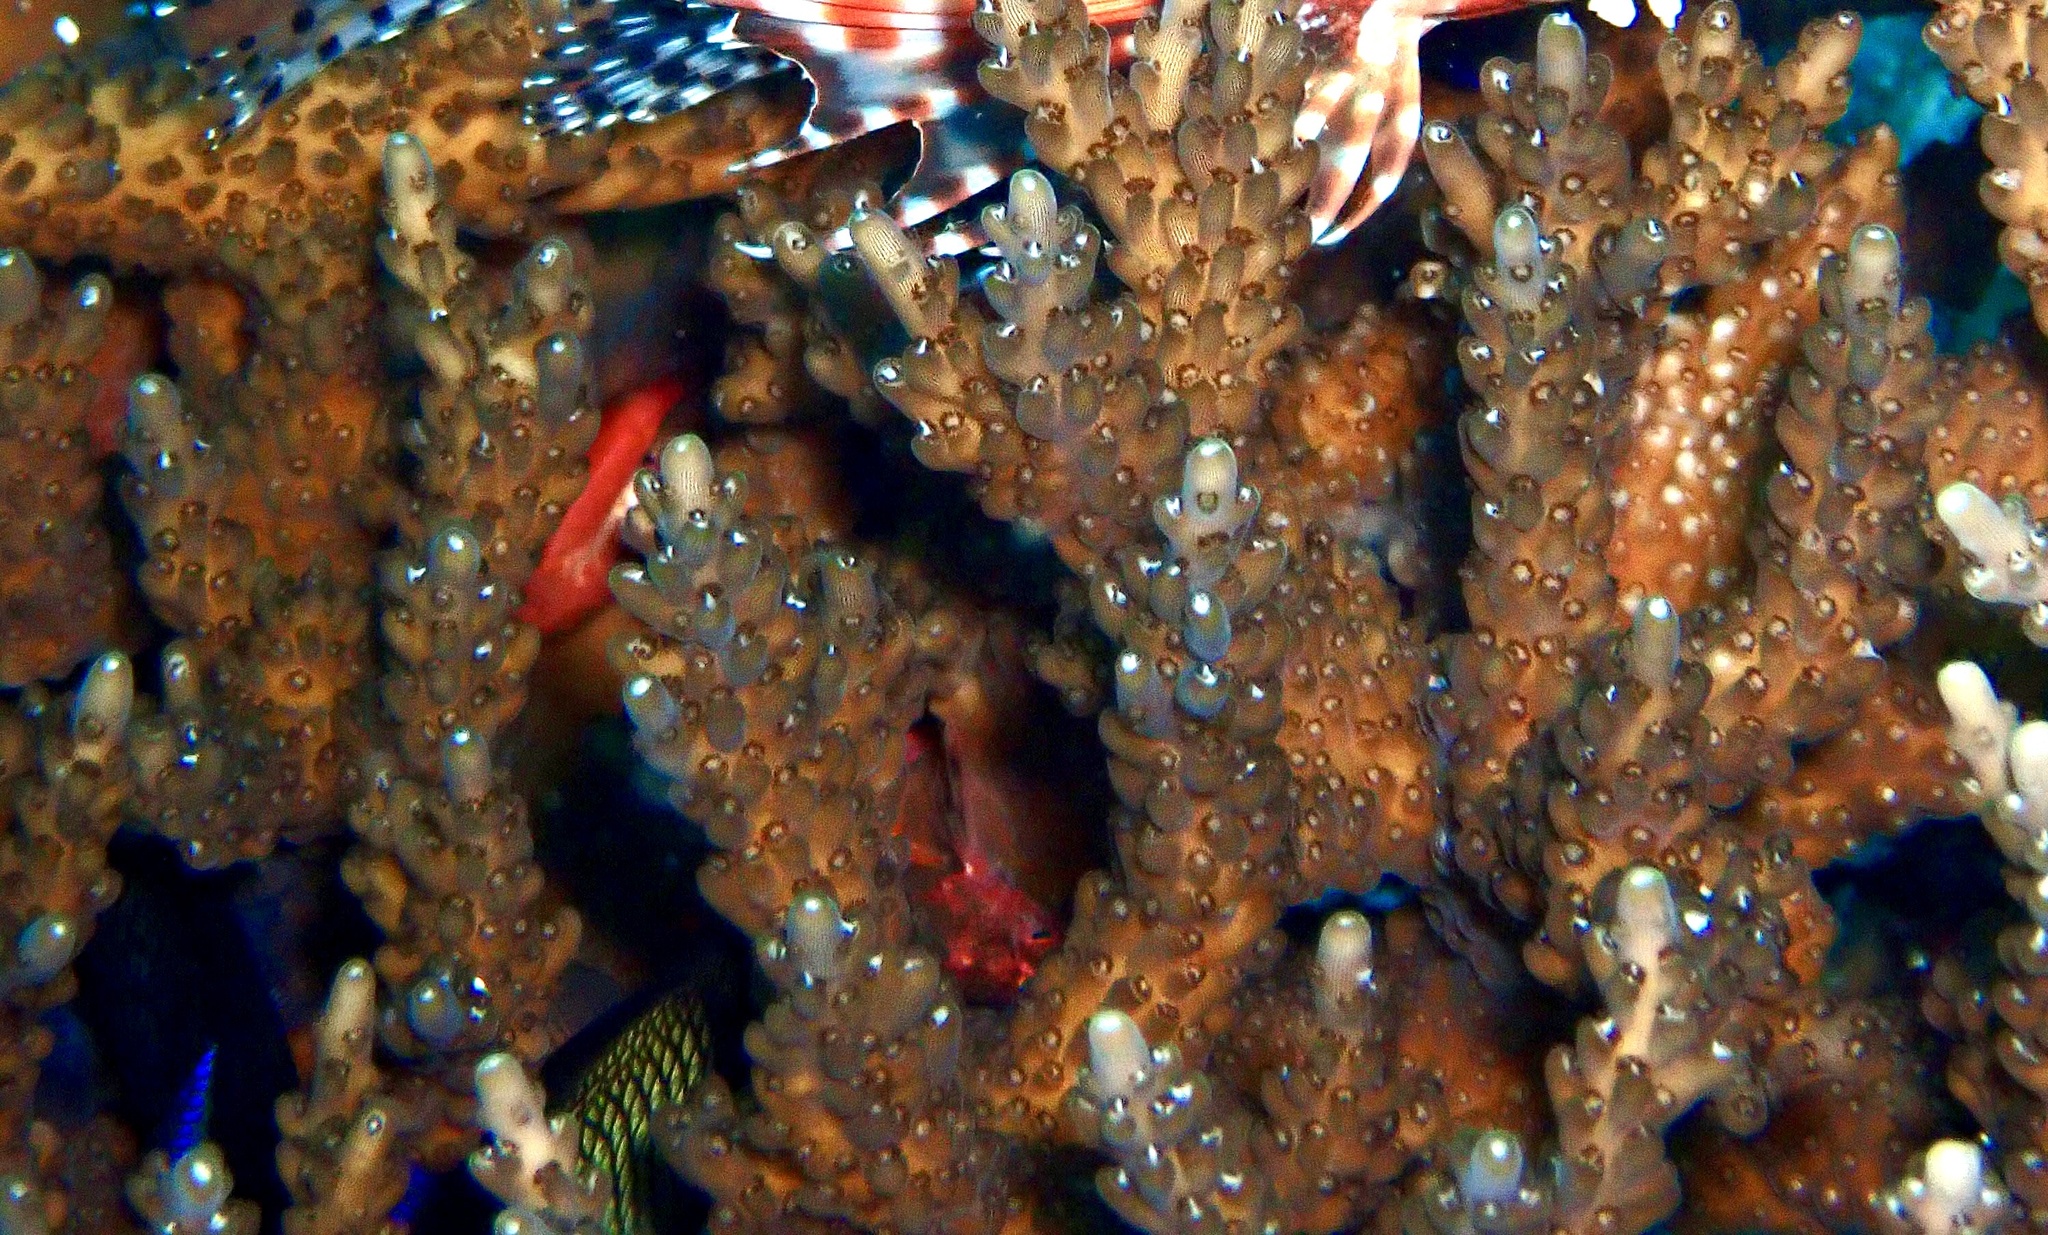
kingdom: Animalia
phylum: Cnidaria
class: Anthozoa
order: Scleractinia
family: Acroporidae
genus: Acropora
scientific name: Acropora solitaryensis
